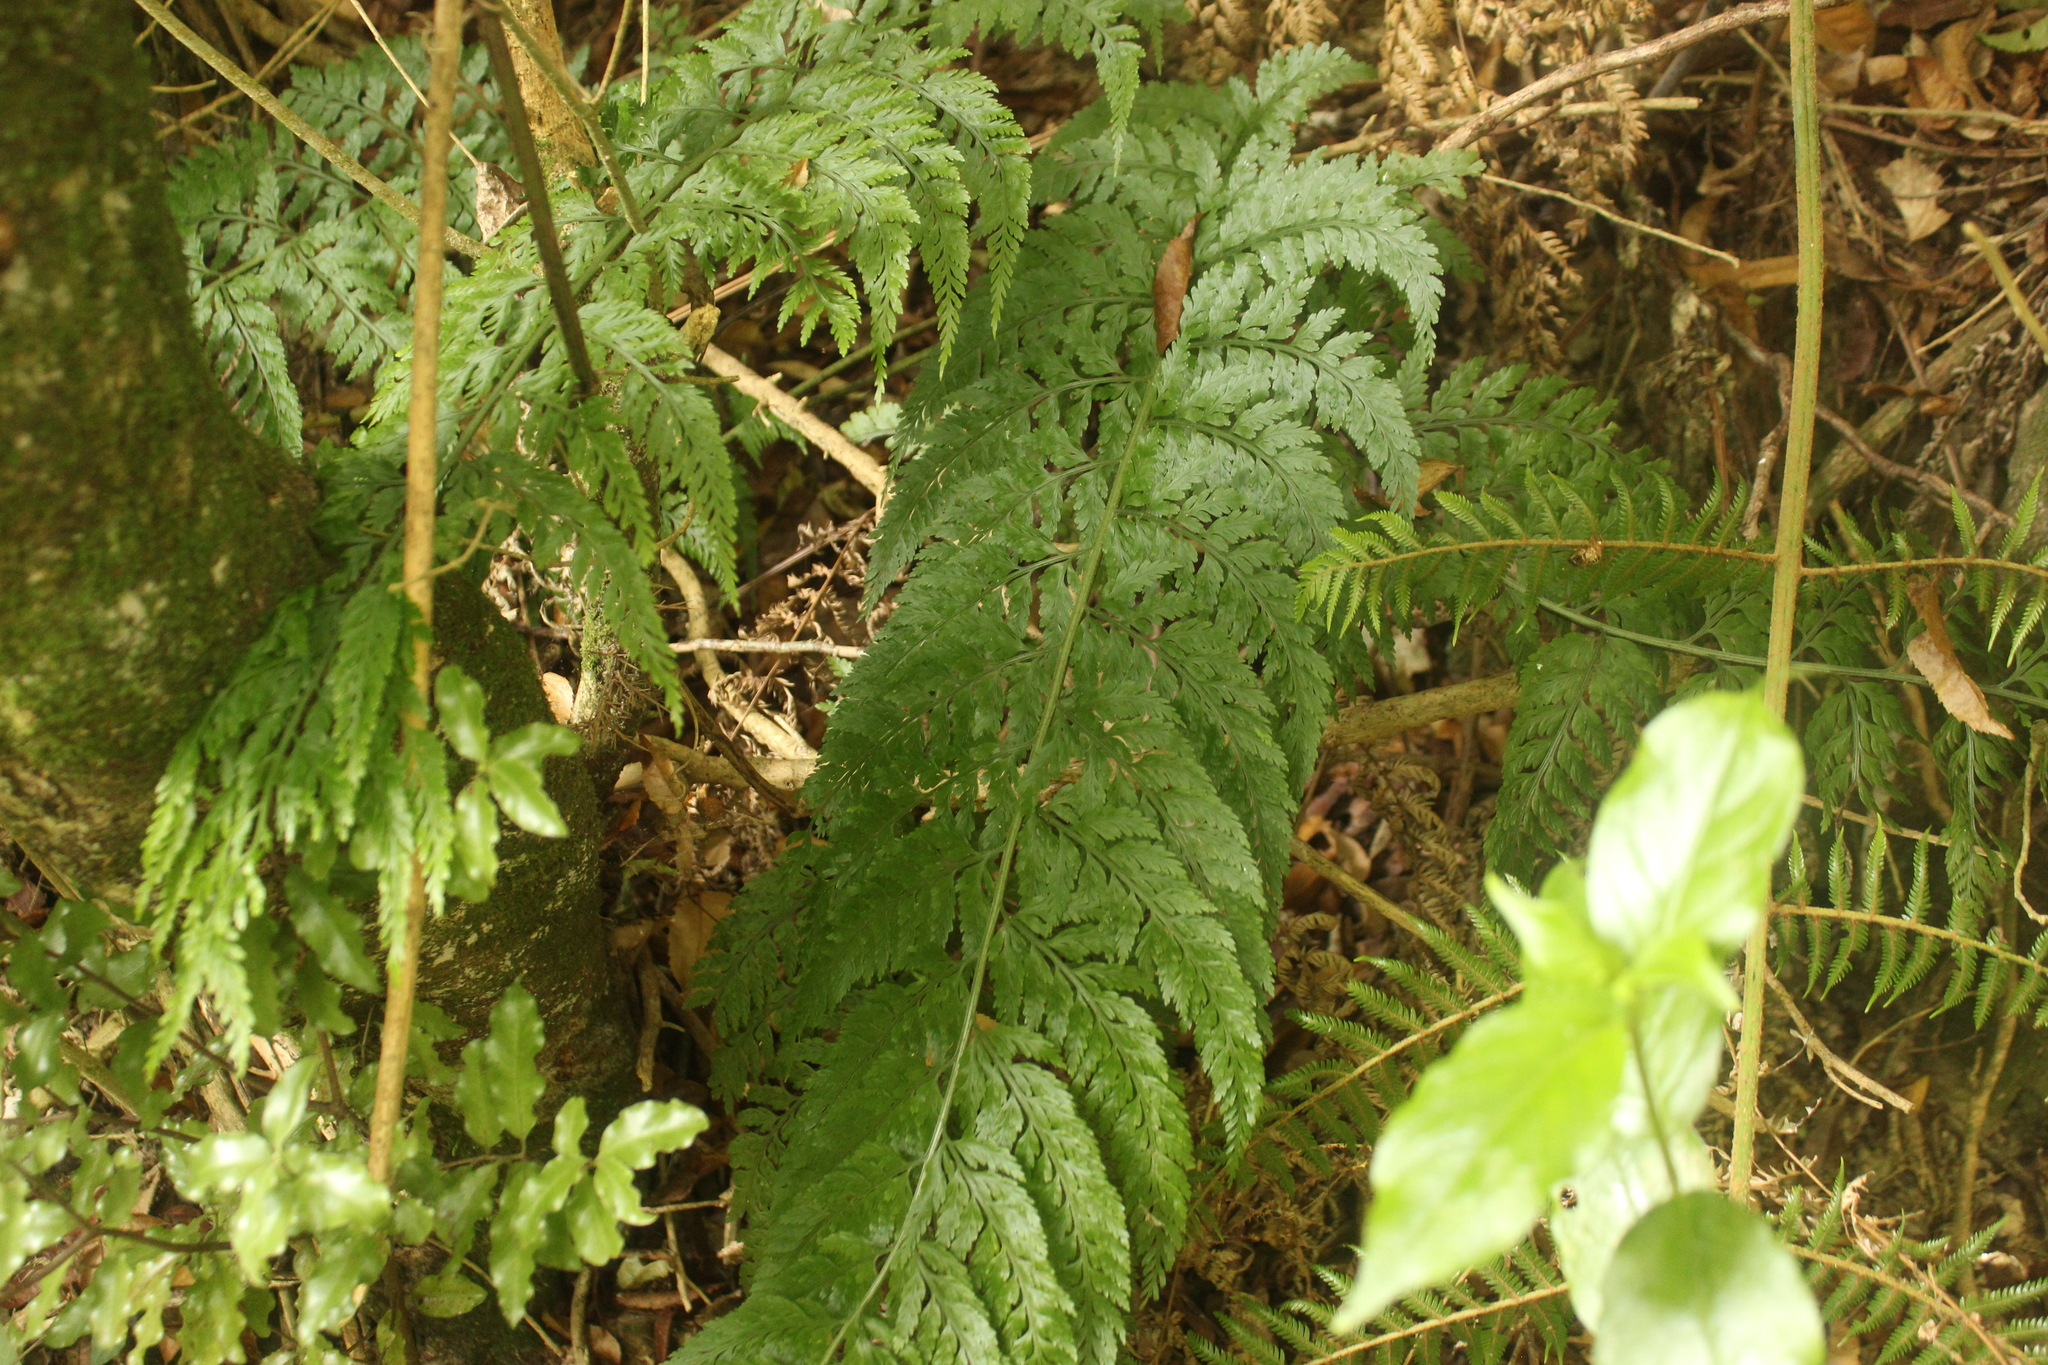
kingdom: Plantae
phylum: Tracheophyta
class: Polypodiopsida
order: Polypodiales
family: Aspleniaceae
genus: Asplenium
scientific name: Asplenium bulbiferum
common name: Mother fern
